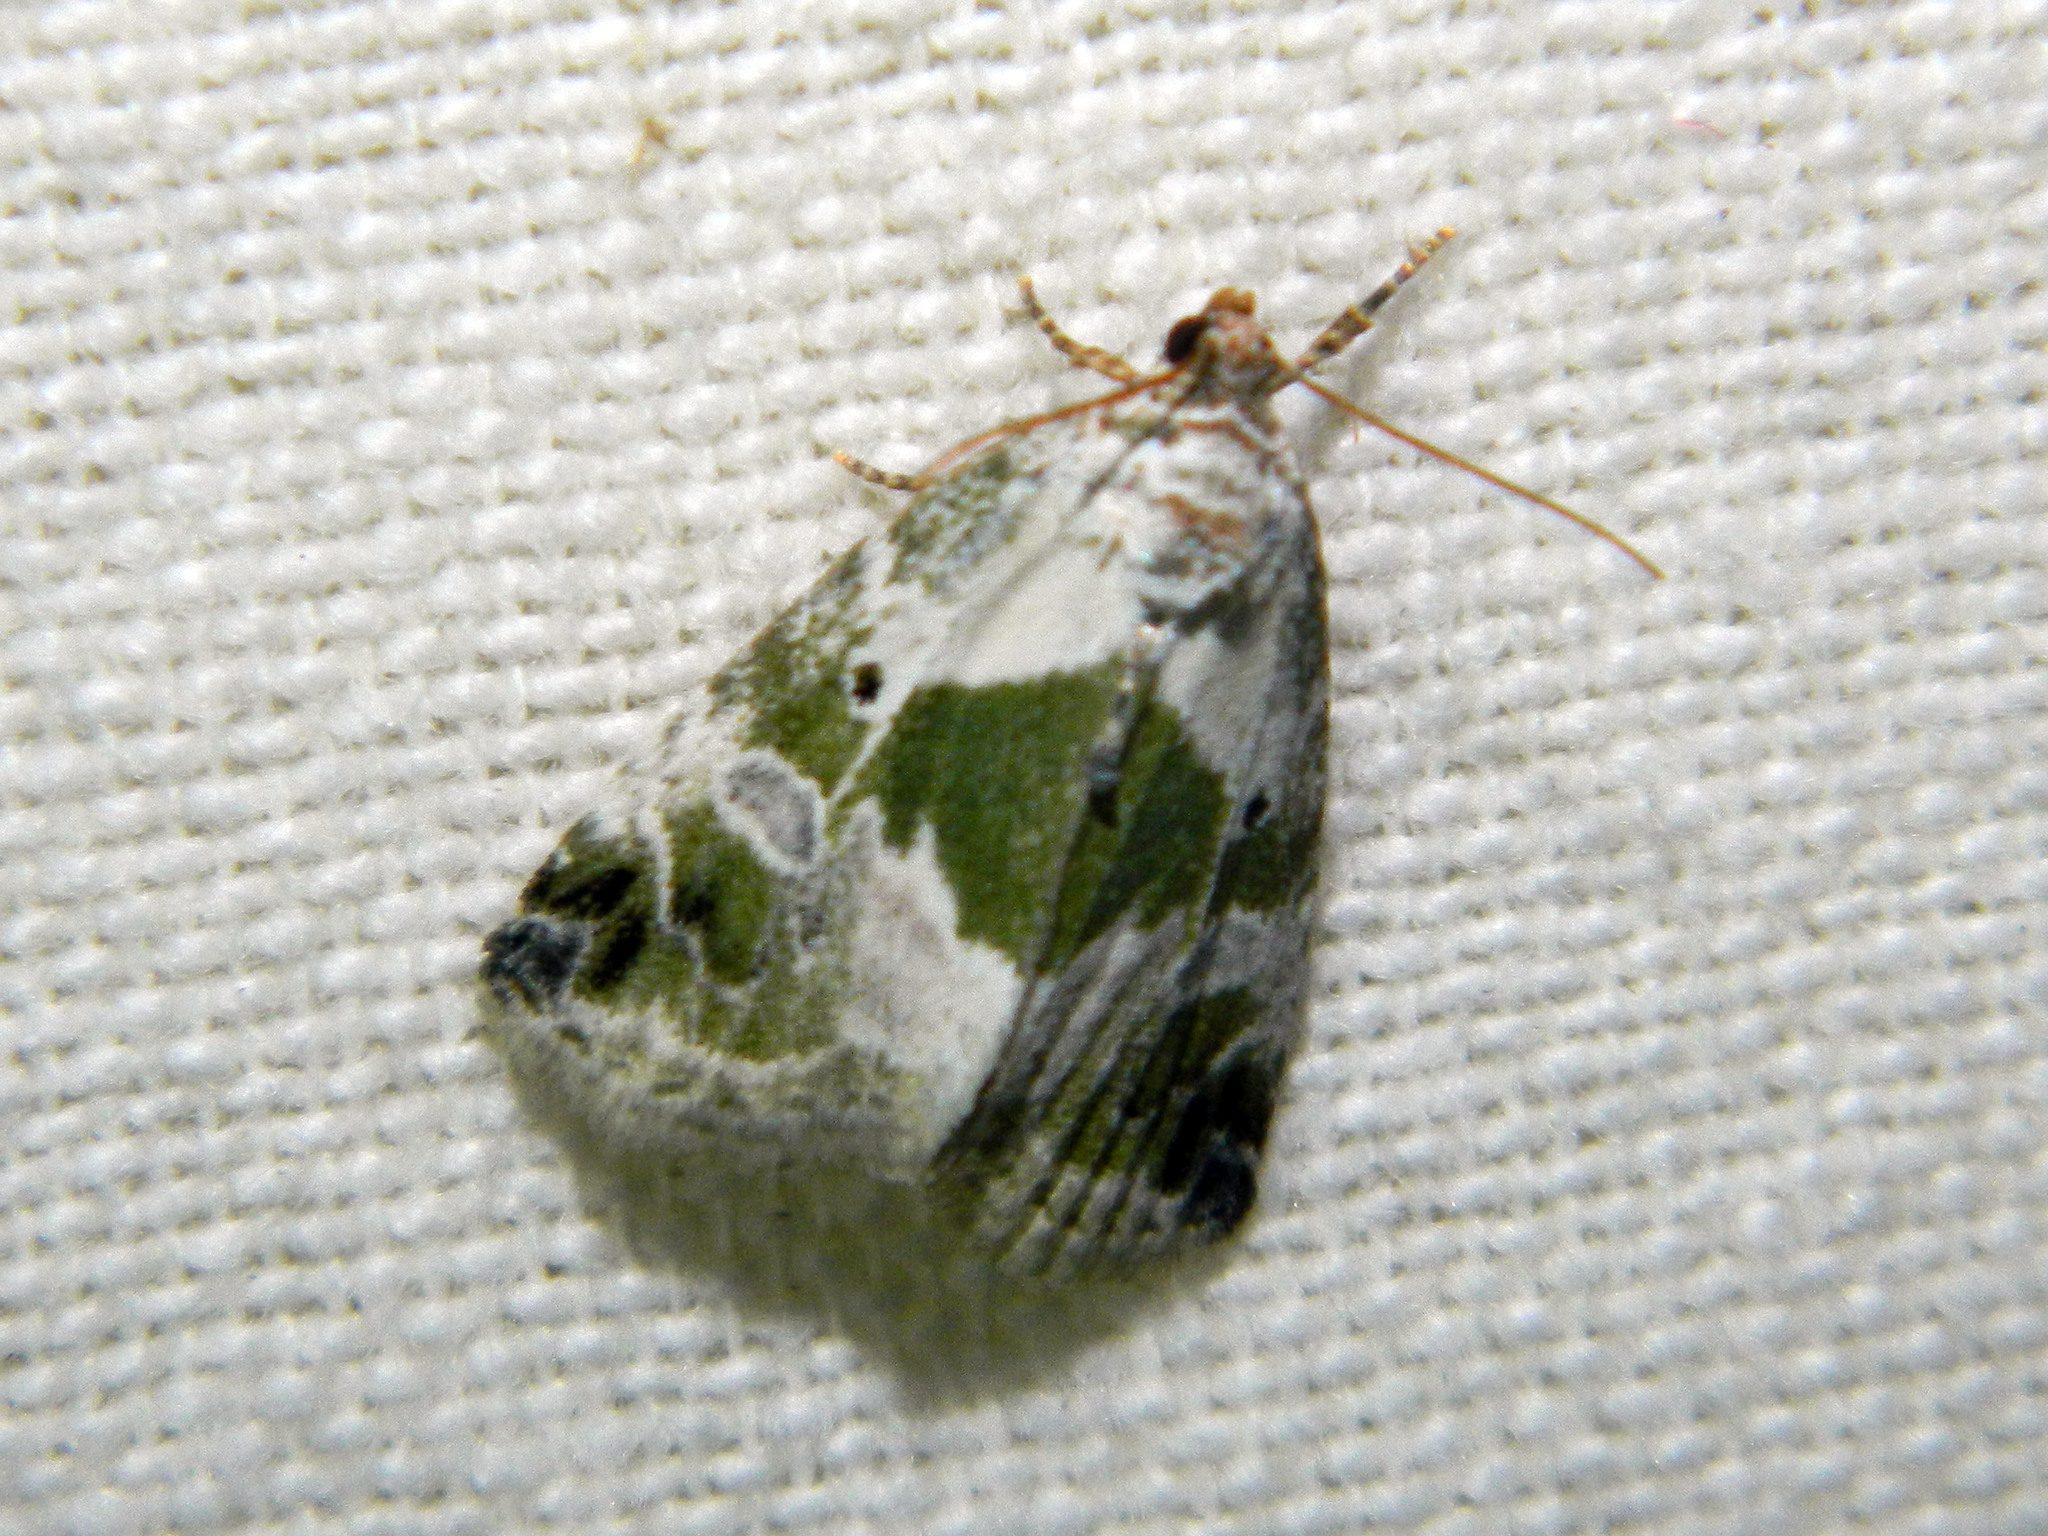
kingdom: Animalia
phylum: Arthropoda
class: Insecta
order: Lepidoptera
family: Noctuidae
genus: Maliattha
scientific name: Maliattha synochitis
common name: Black-dotted glyph
